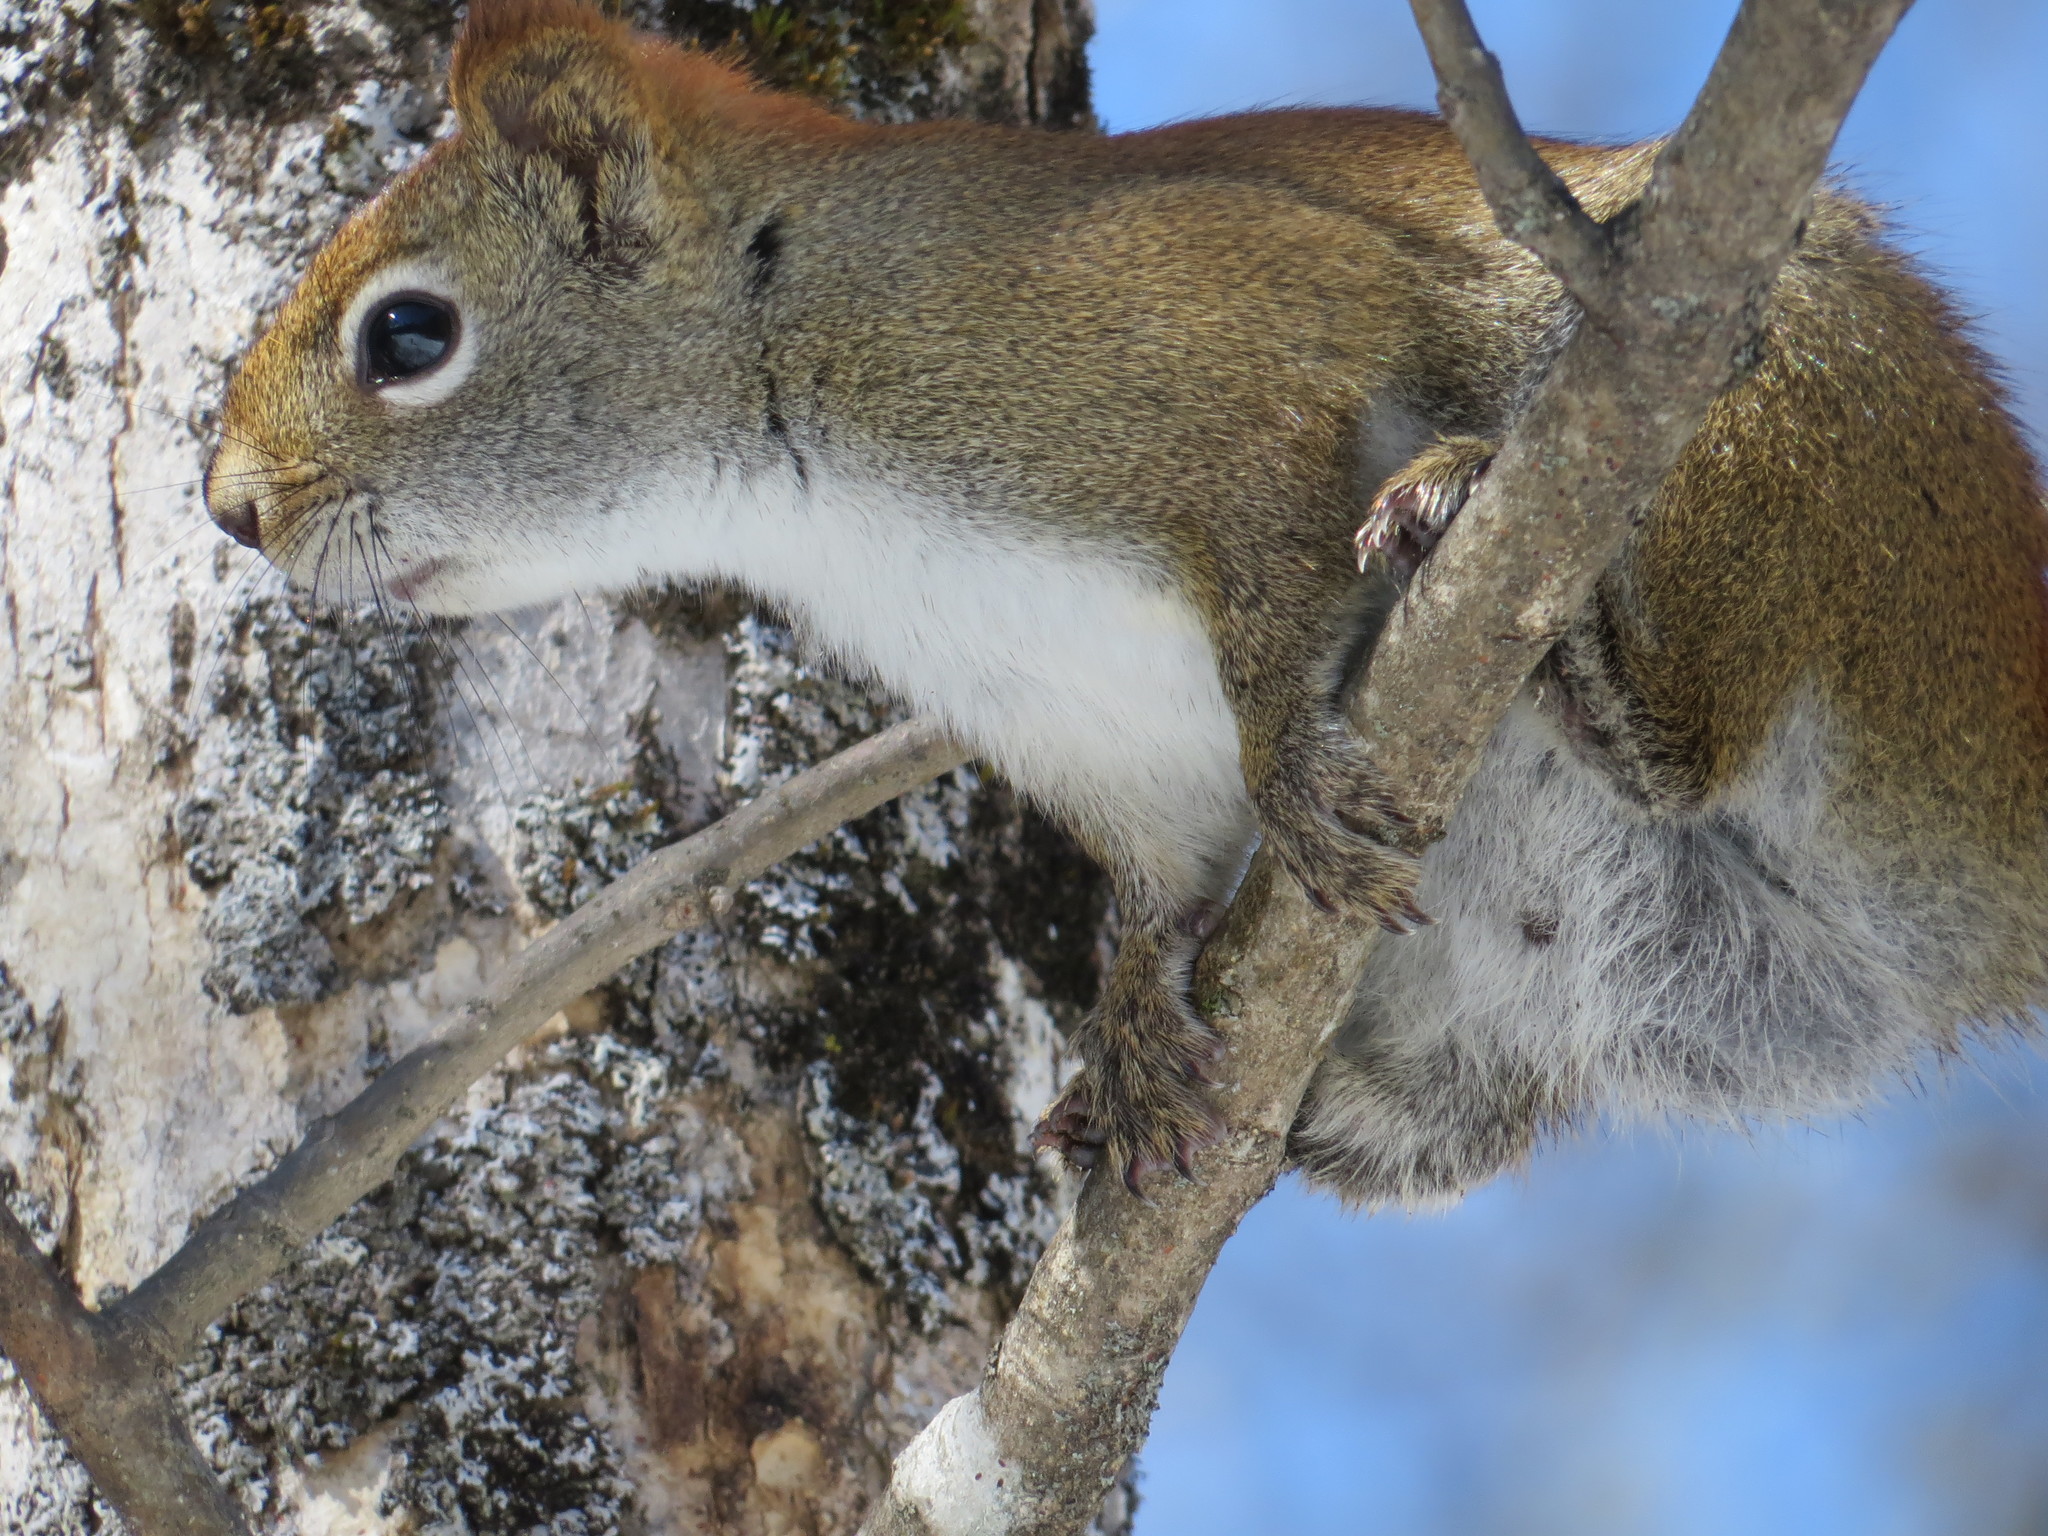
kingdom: Animalia
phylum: Chordata
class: Mammalia
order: Rodentia
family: Sciuridae
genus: Tamiasciurus
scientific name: Tamiasciurus hudsonicus
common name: Red squirrel
